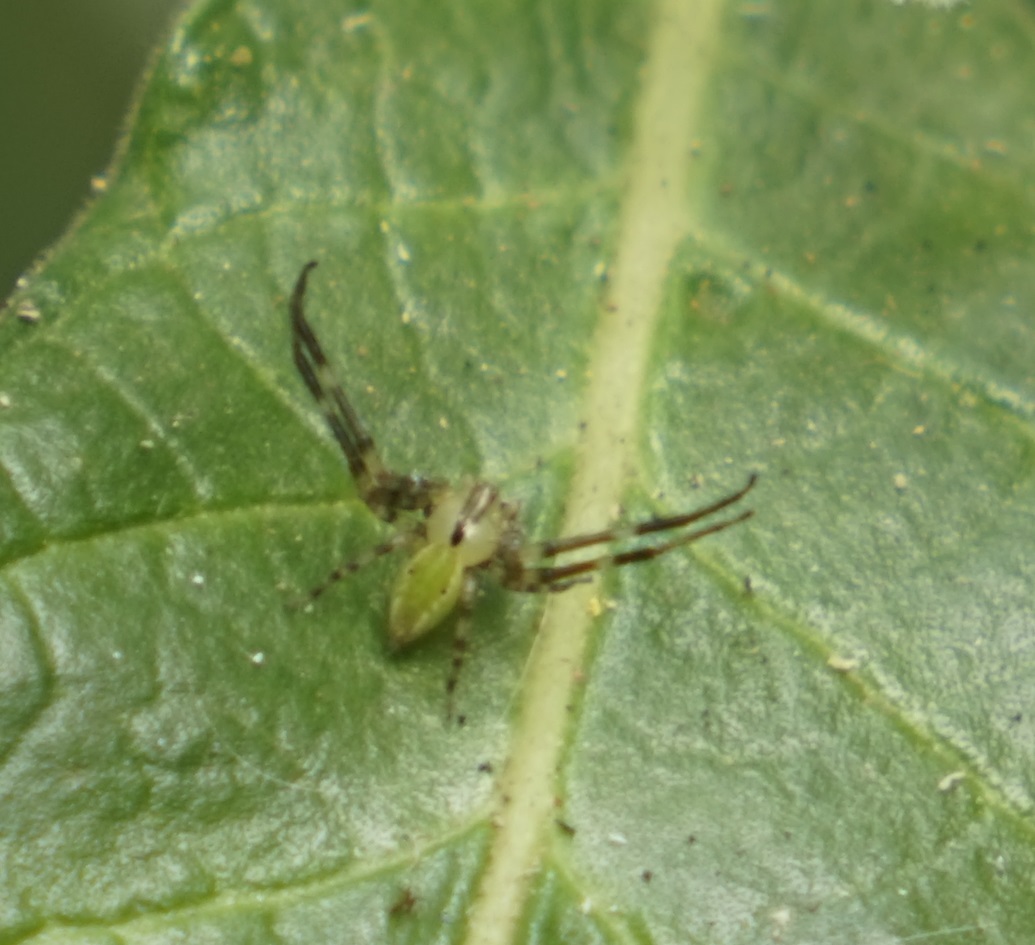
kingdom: Animalia
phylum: Arthropoda
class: Arachnida
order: Araneae
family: Thomisidae
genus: Sidymella
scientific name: Sidymella rubrosignata
